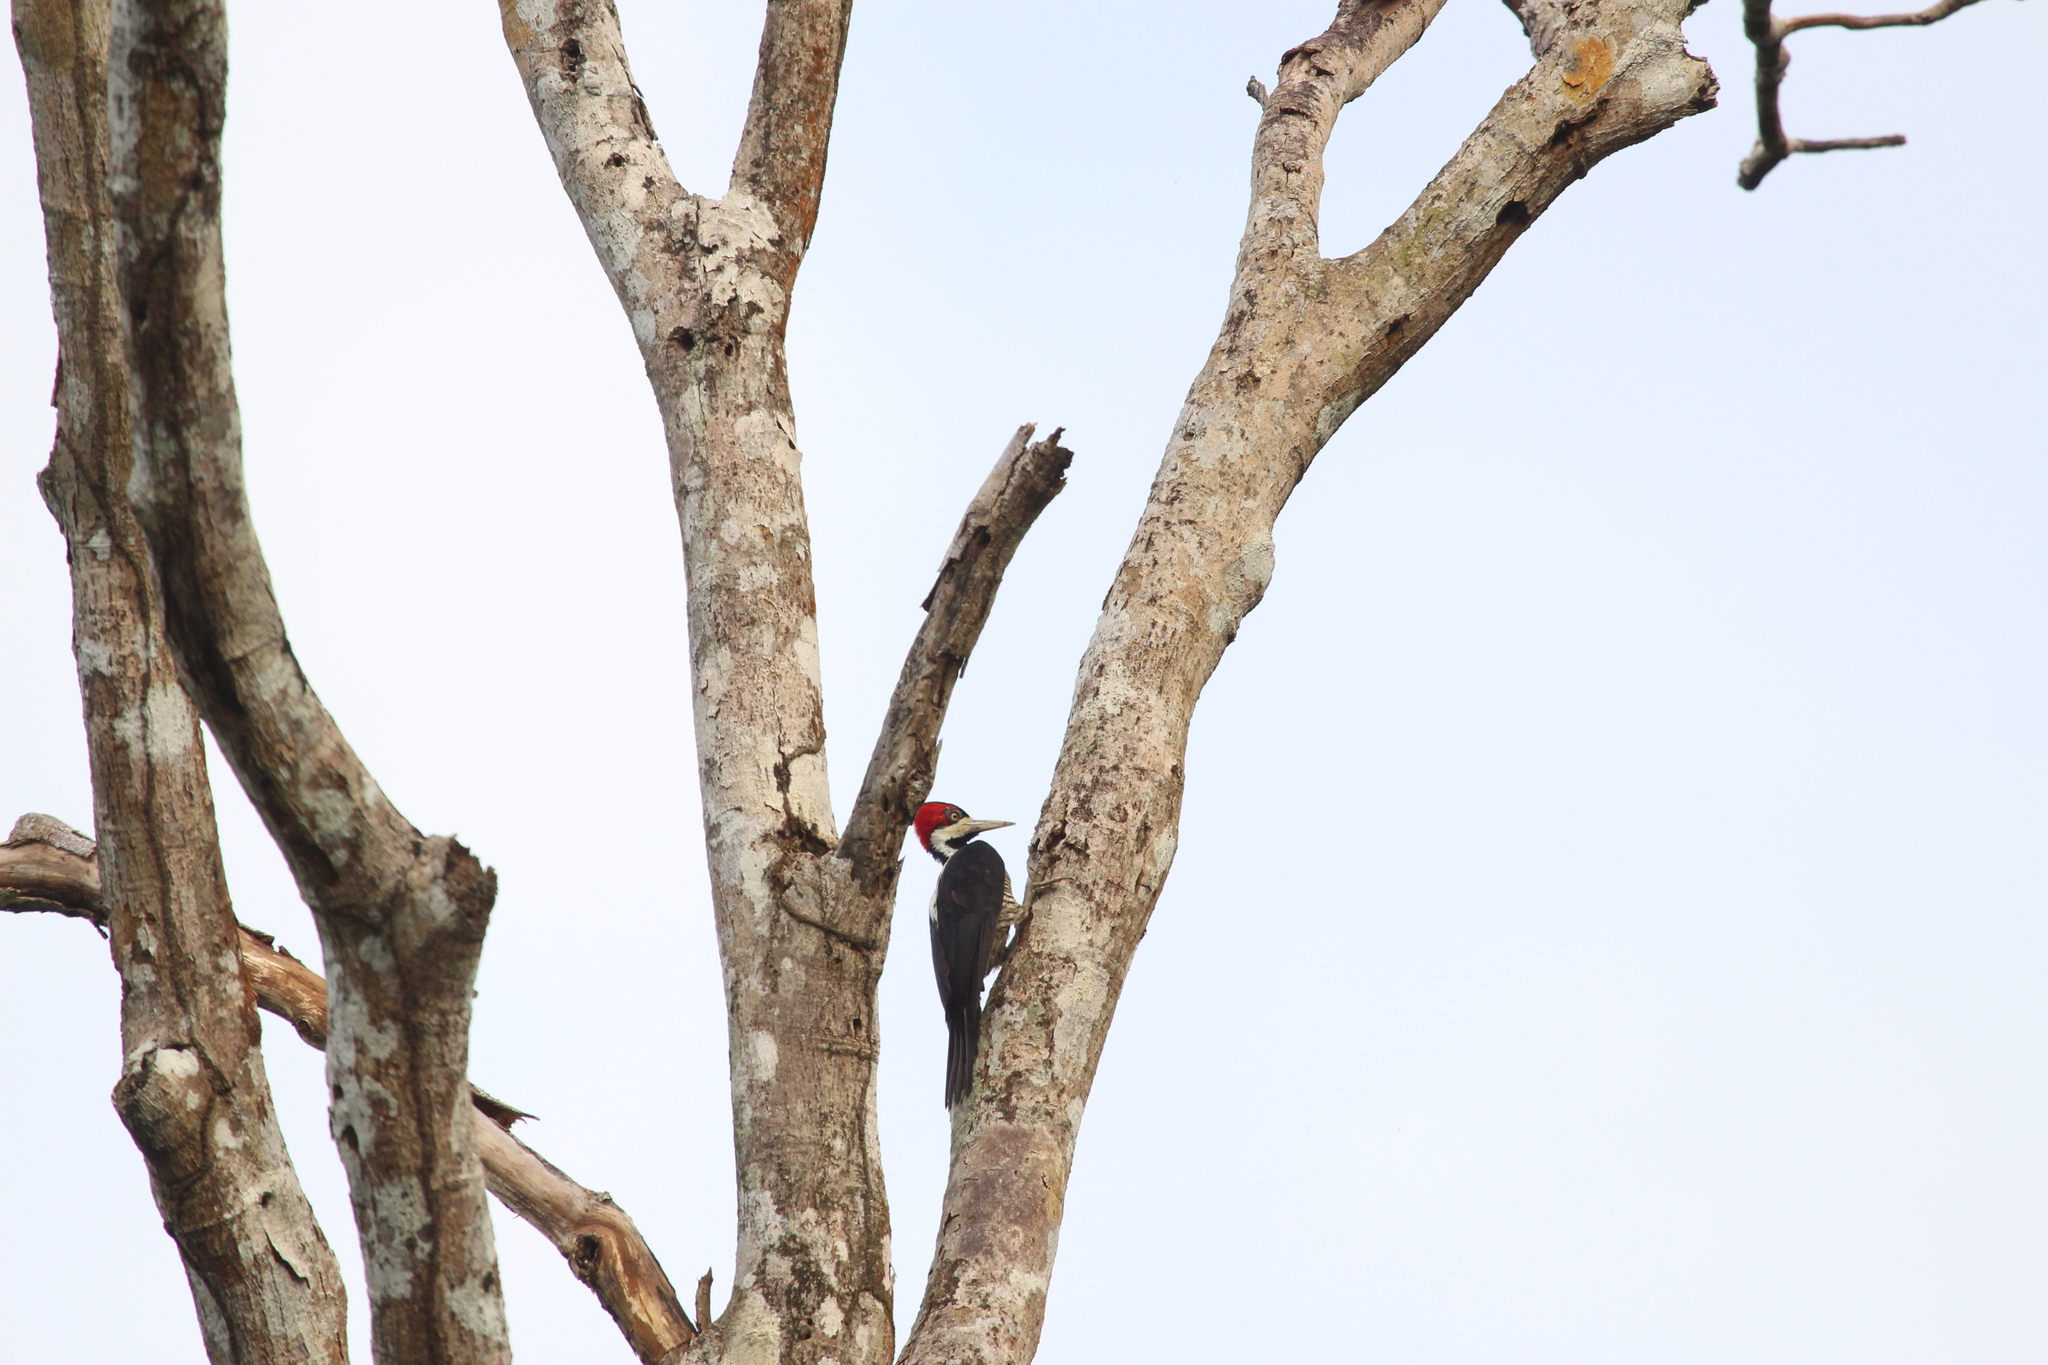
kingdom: Animalia
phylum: Chordata
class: Aves
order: Piciformes
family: Picidae
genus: Campephilus
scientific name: Campephilus melanoleucos
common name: Crimson-crested woodpecker
